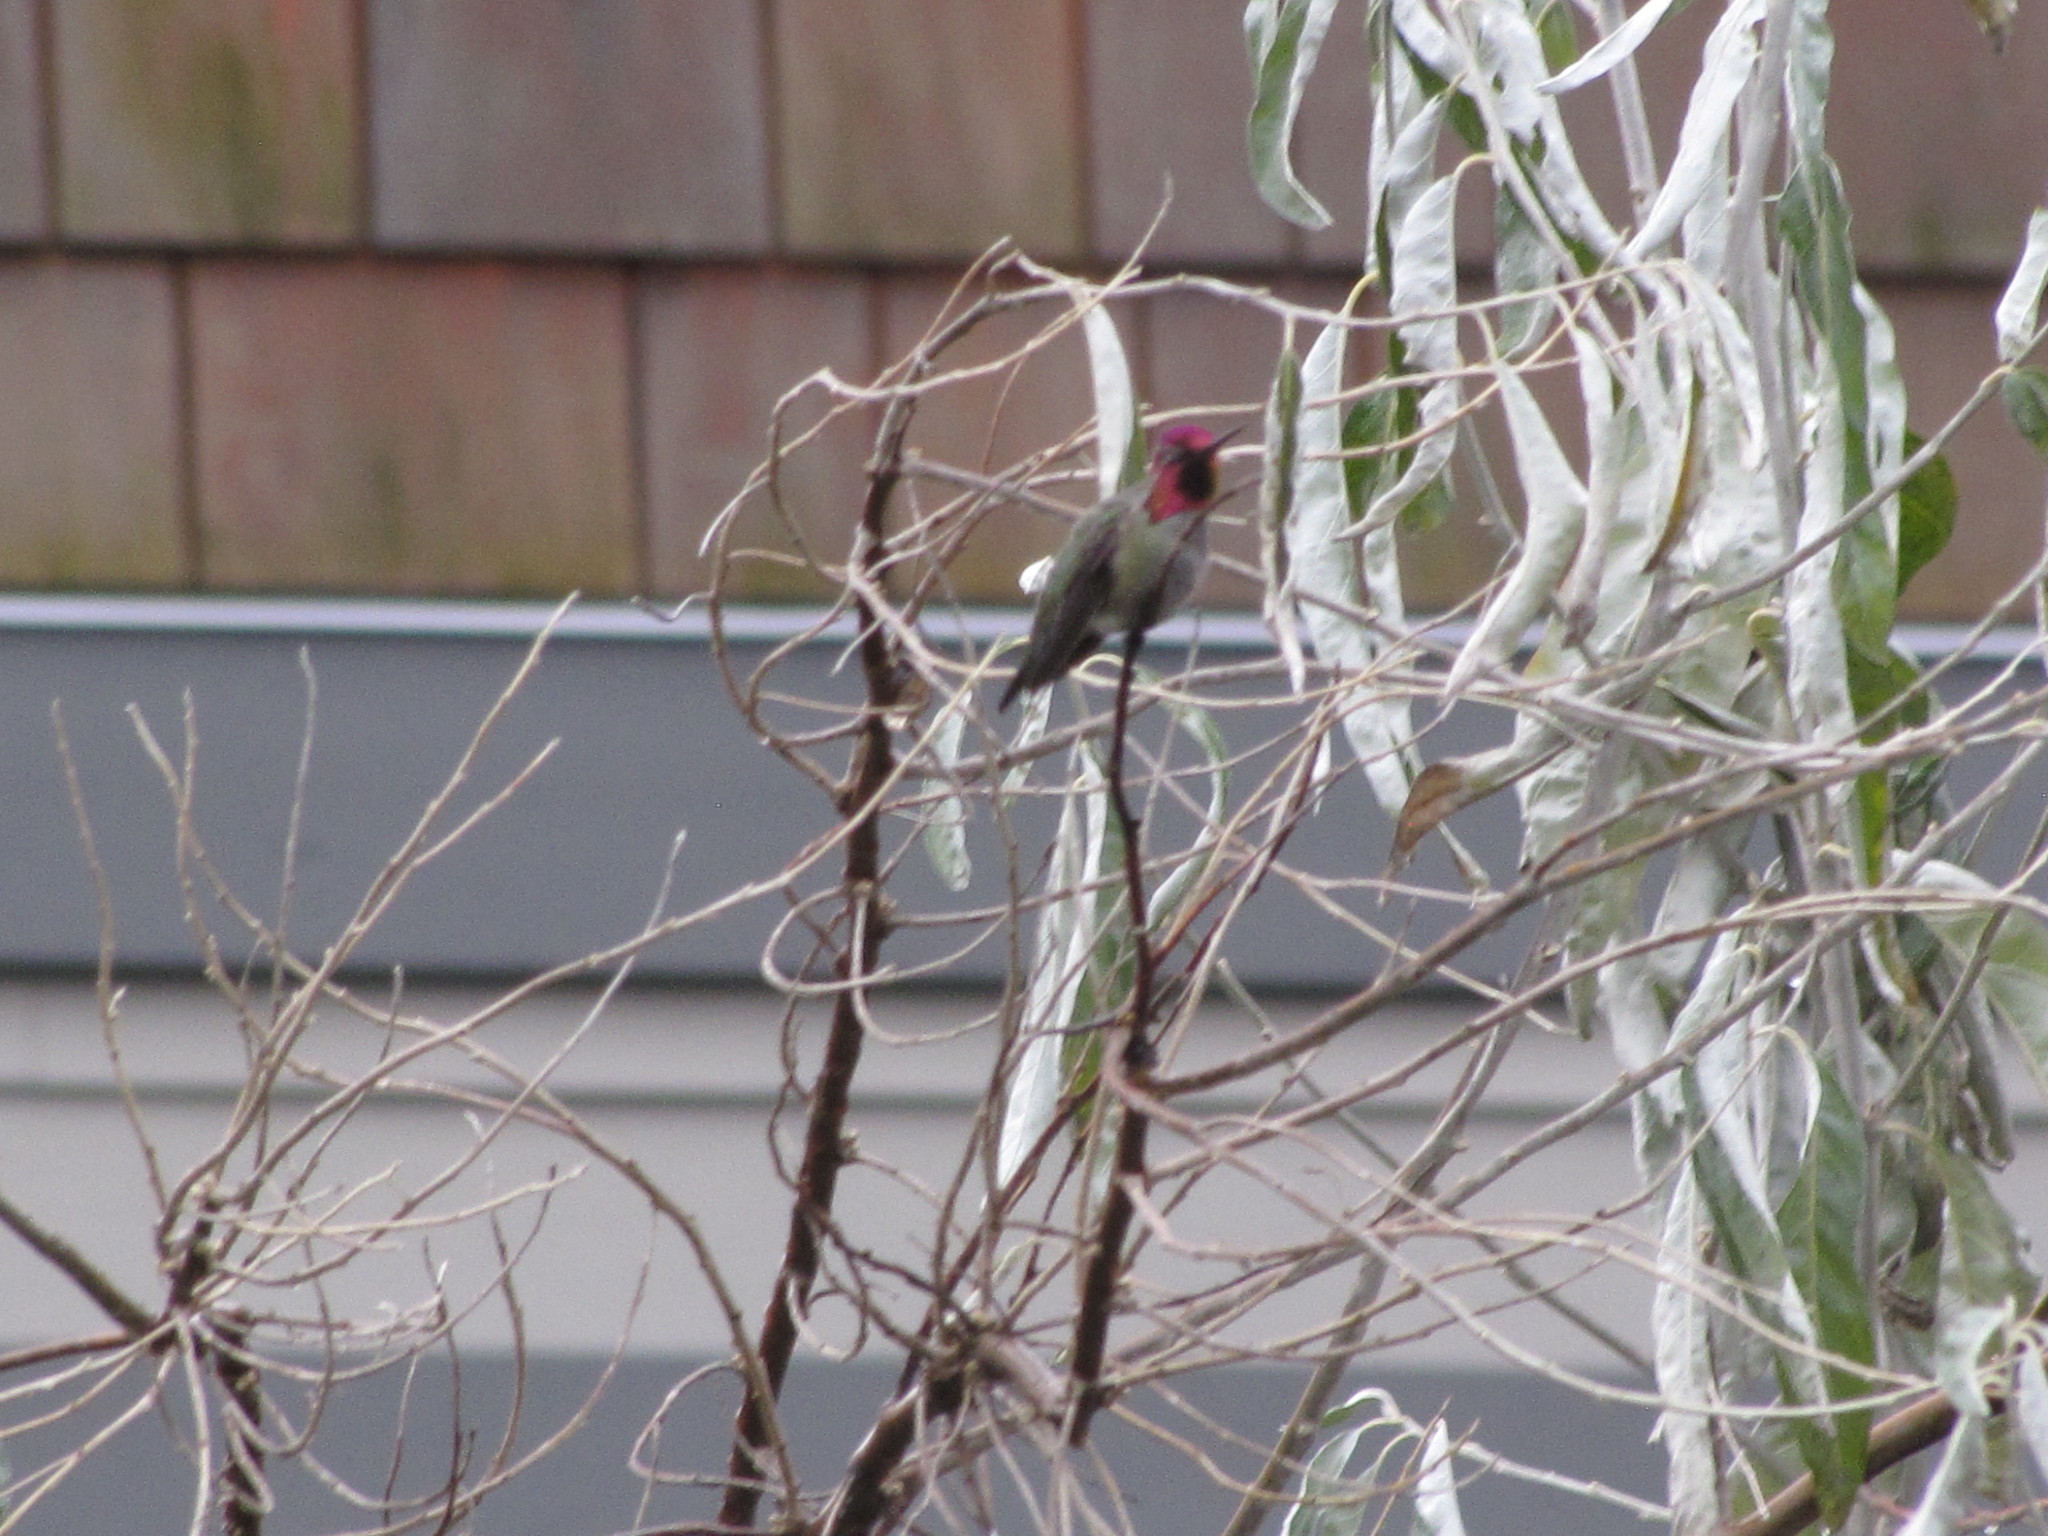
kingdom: Animalia
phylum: Chordata
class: Aves
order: Apodiformes
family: Trochilidae
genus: Calypte
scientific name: Calypte anna
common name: Anna's hummingbird
